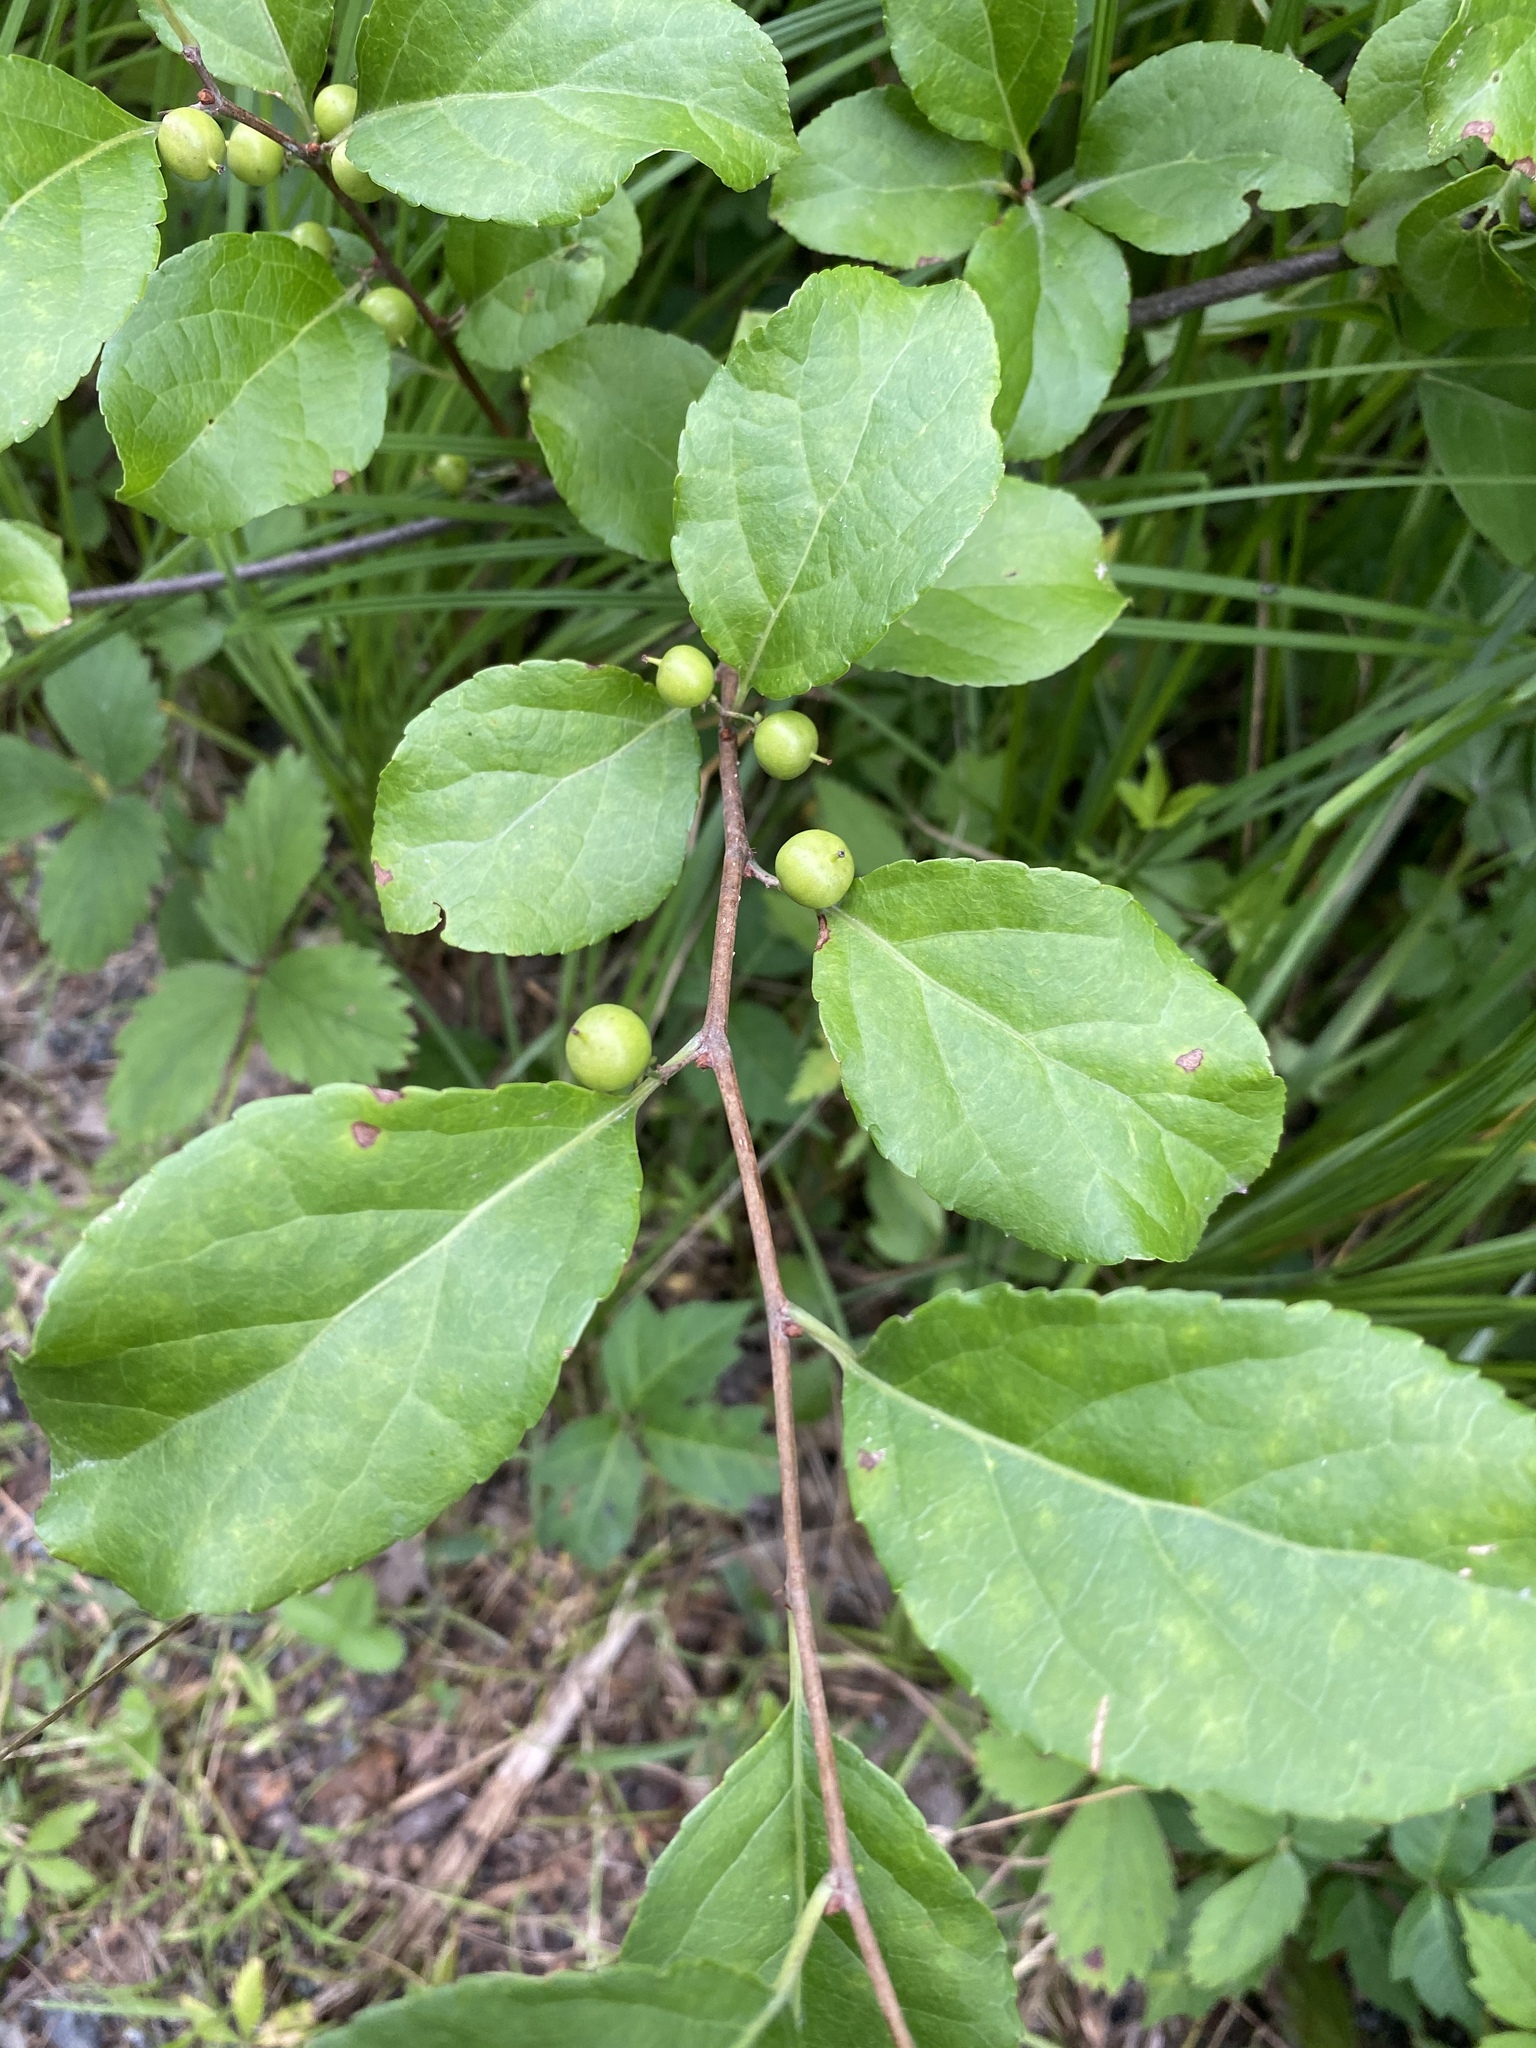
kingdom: Plantae
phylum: Tracheophyta
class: Magnoliopsida
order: Celastrales
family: Celastraceae
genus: Celastrus
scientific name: Celastrus orbiculatus
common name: Oriental bittersweet
